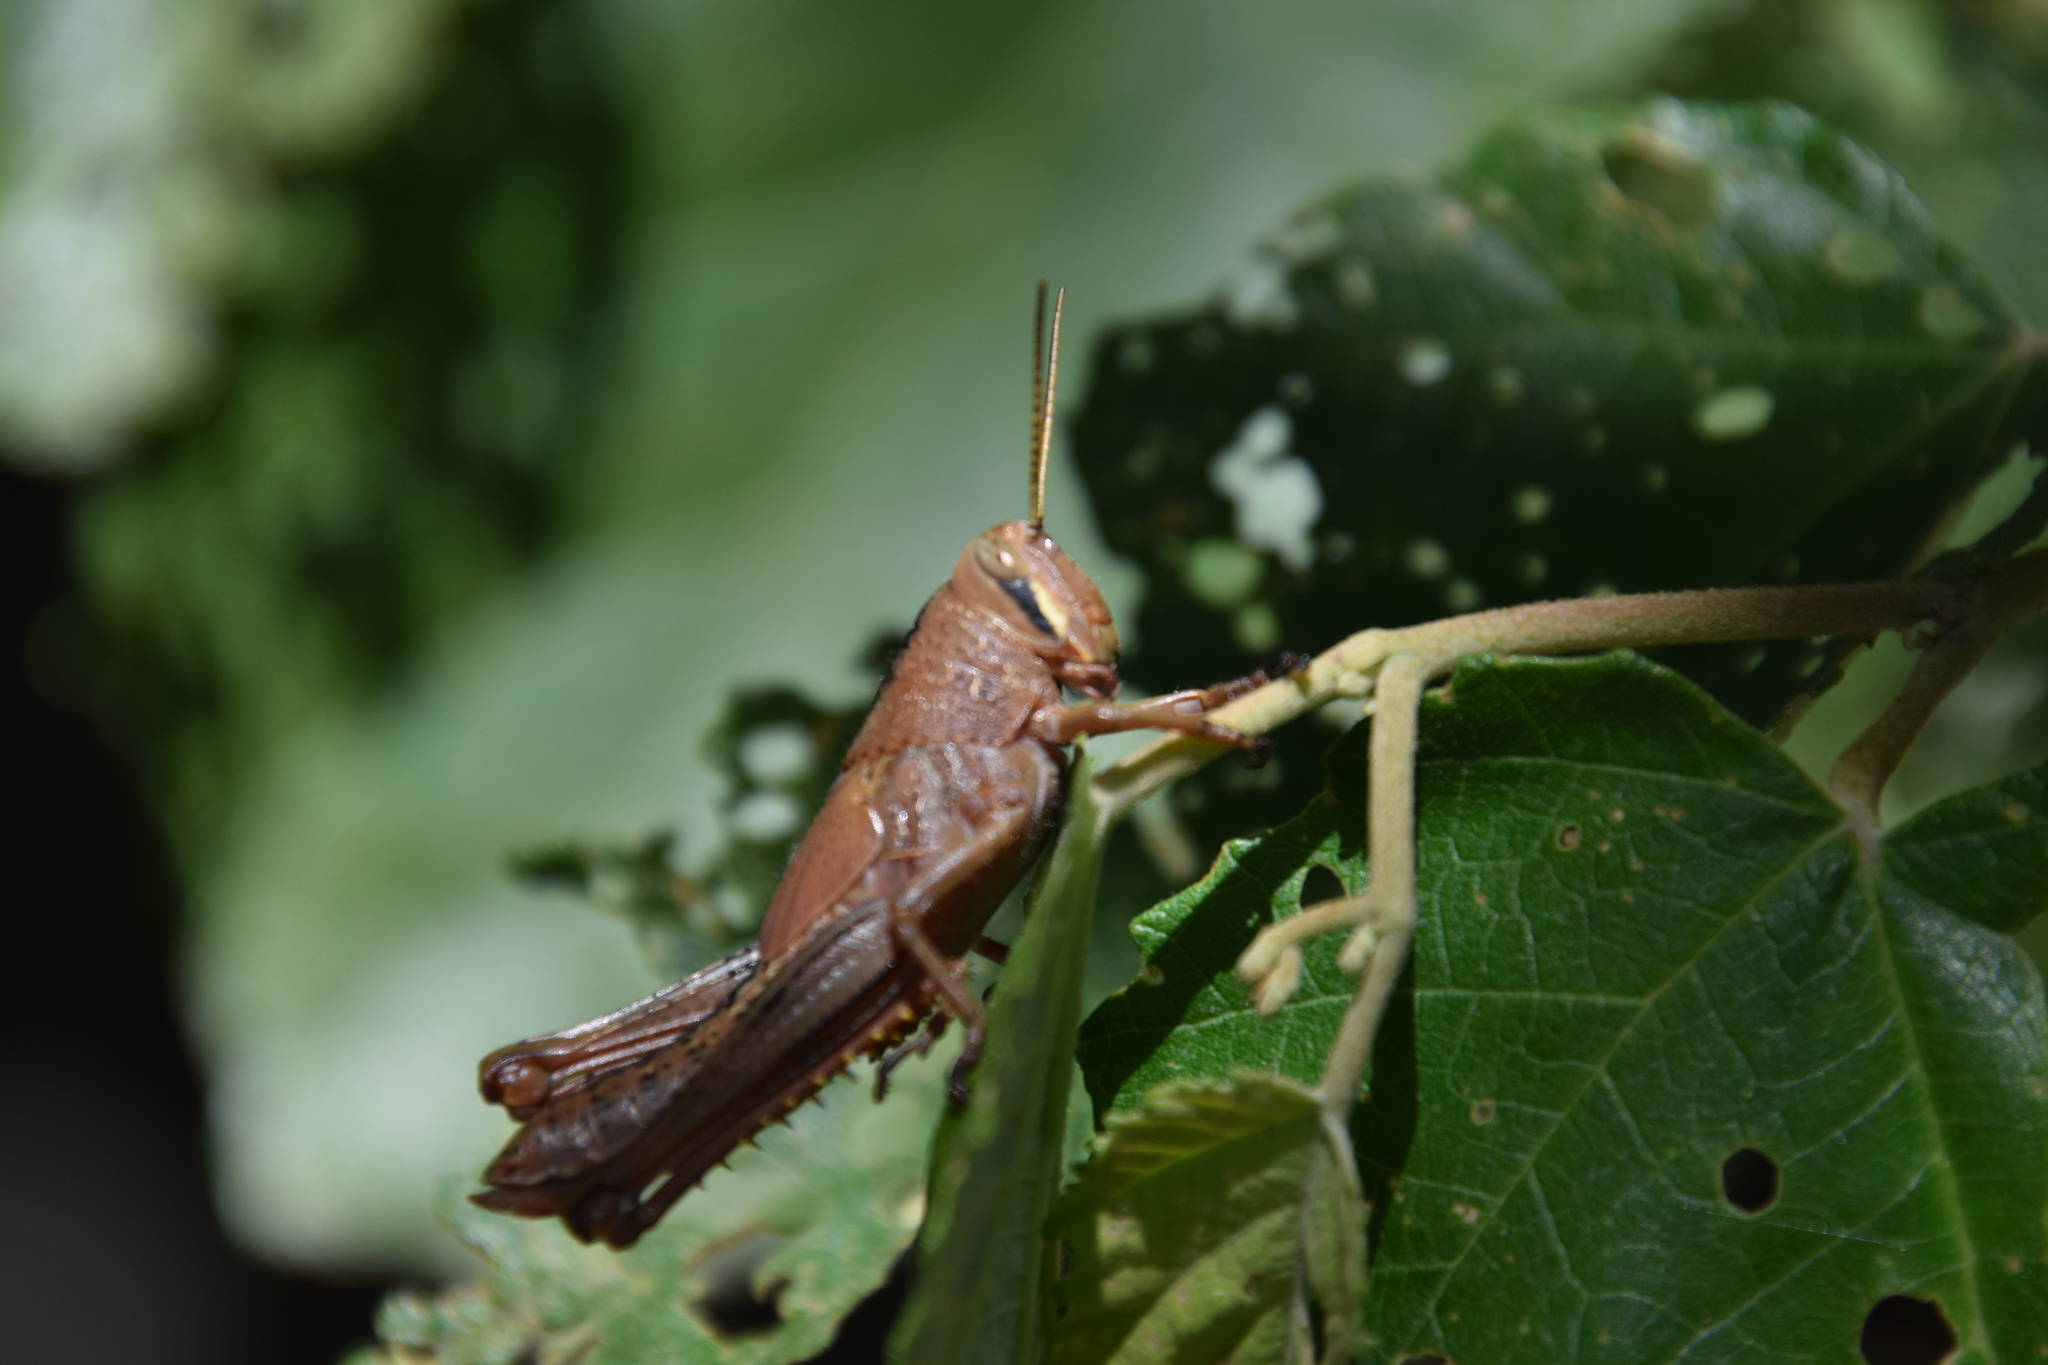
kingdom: Animalia
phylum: Arthropoda
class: Insecta
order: Orthoptera
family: Acrididae
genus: Valanga
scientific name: Valanga irregularis
